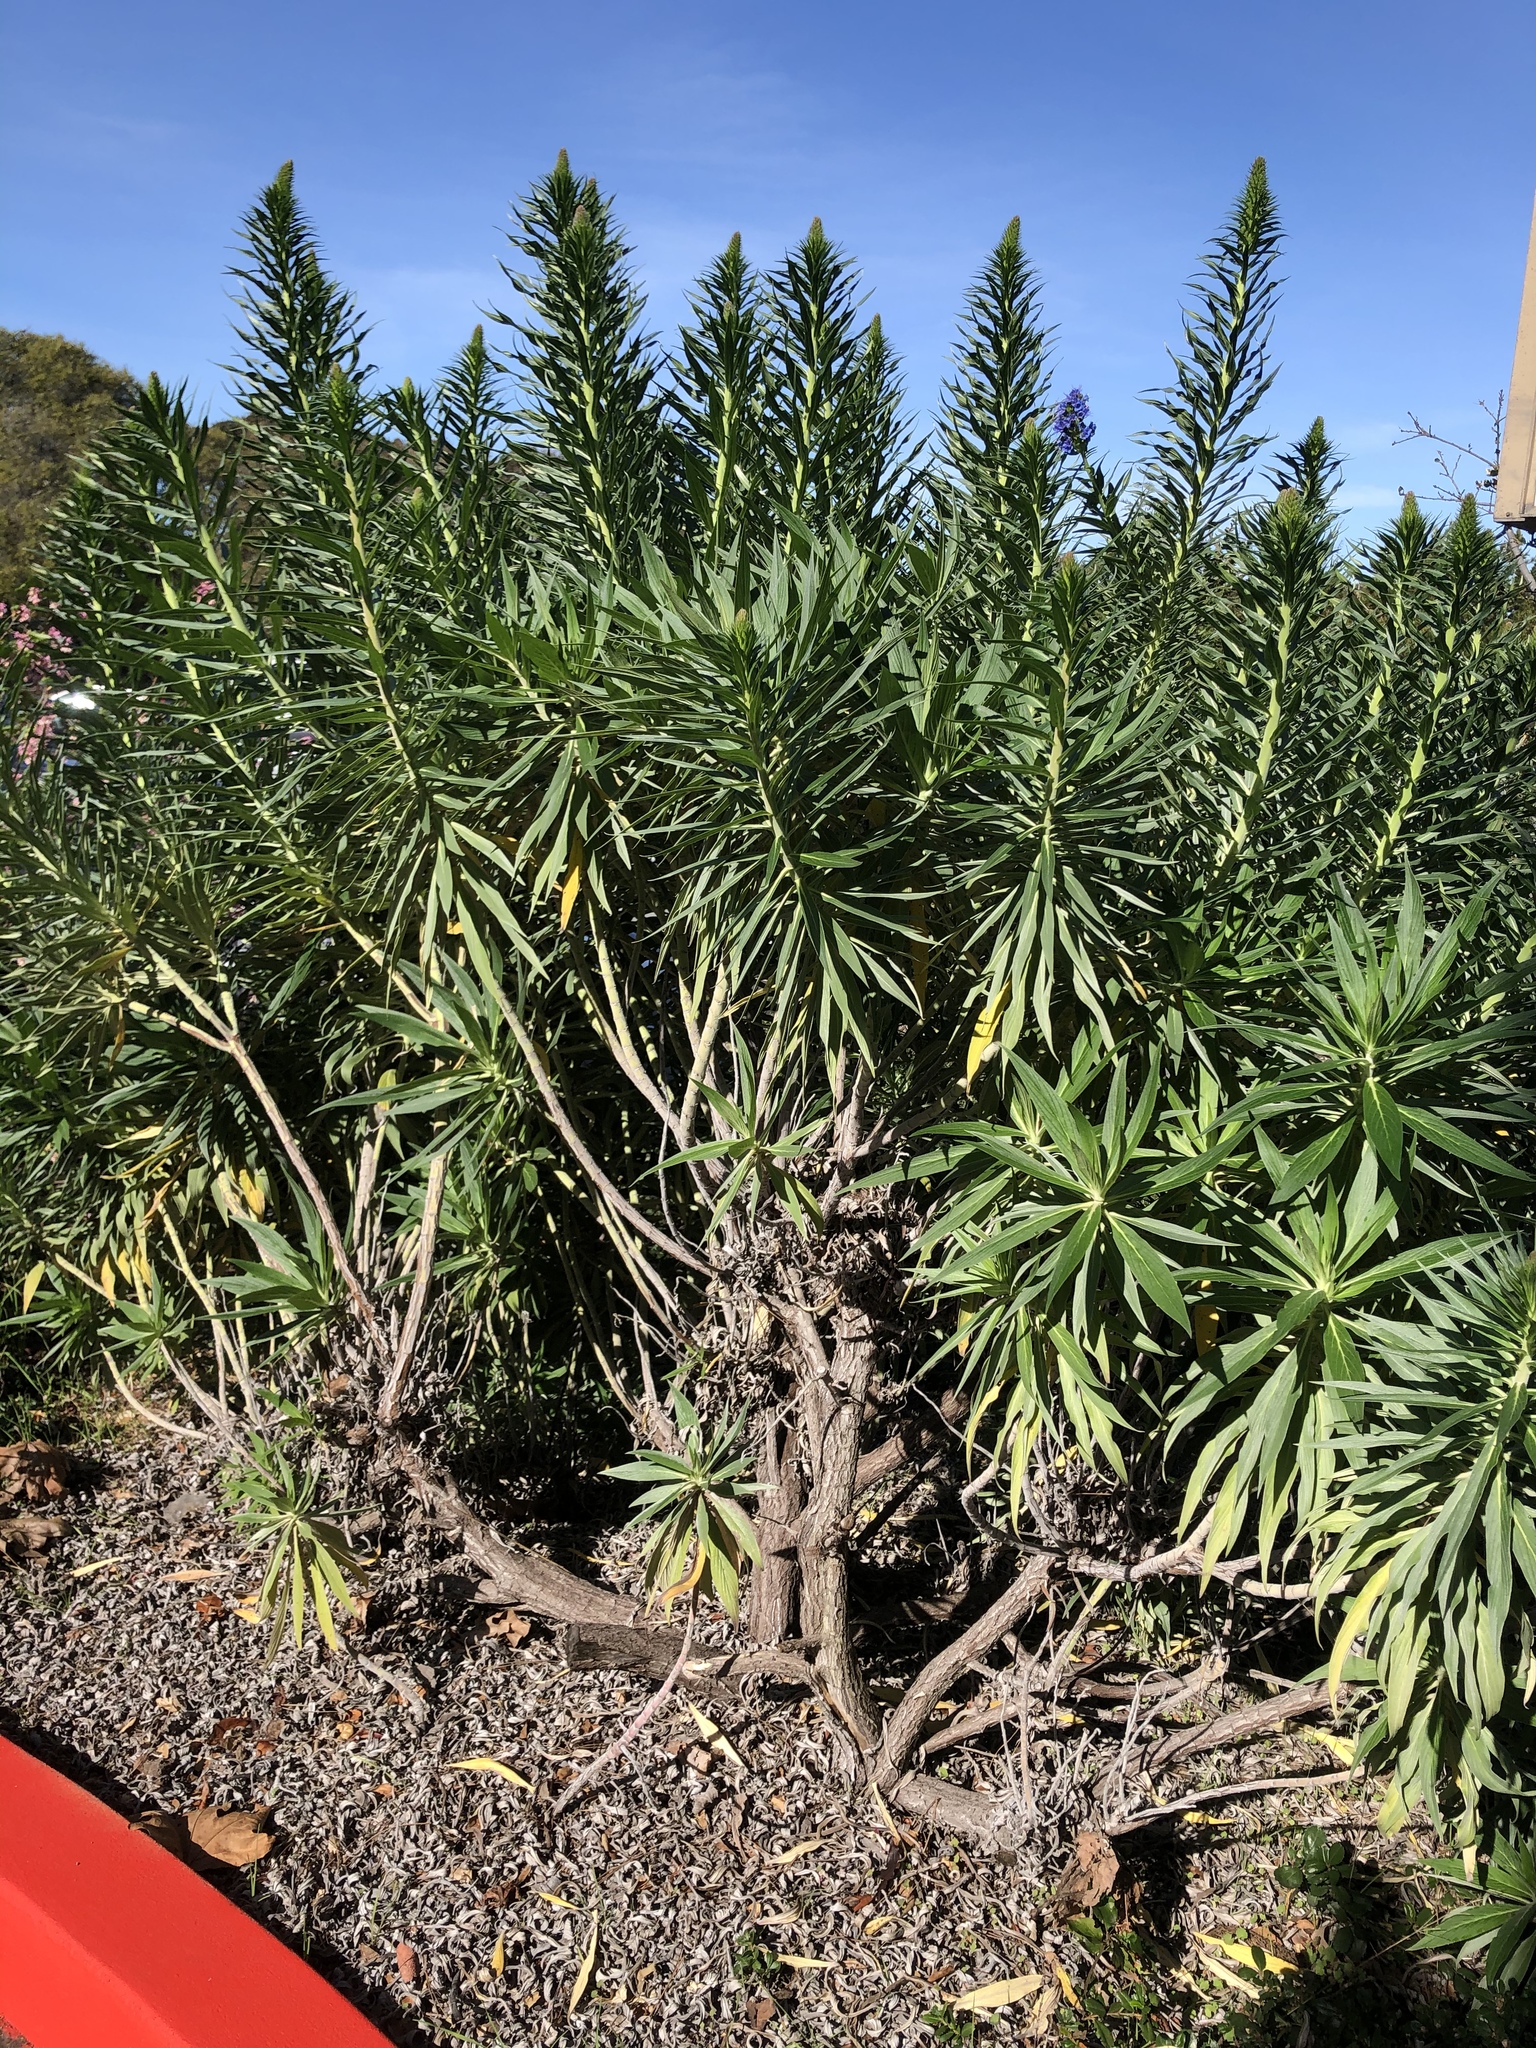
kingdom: Plantae
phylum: Tracheophyta
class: Magnoliopsida
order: Boraginales
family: Boraginaceae
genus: Echium
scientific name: Echium candicans
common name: Pride of madeira
